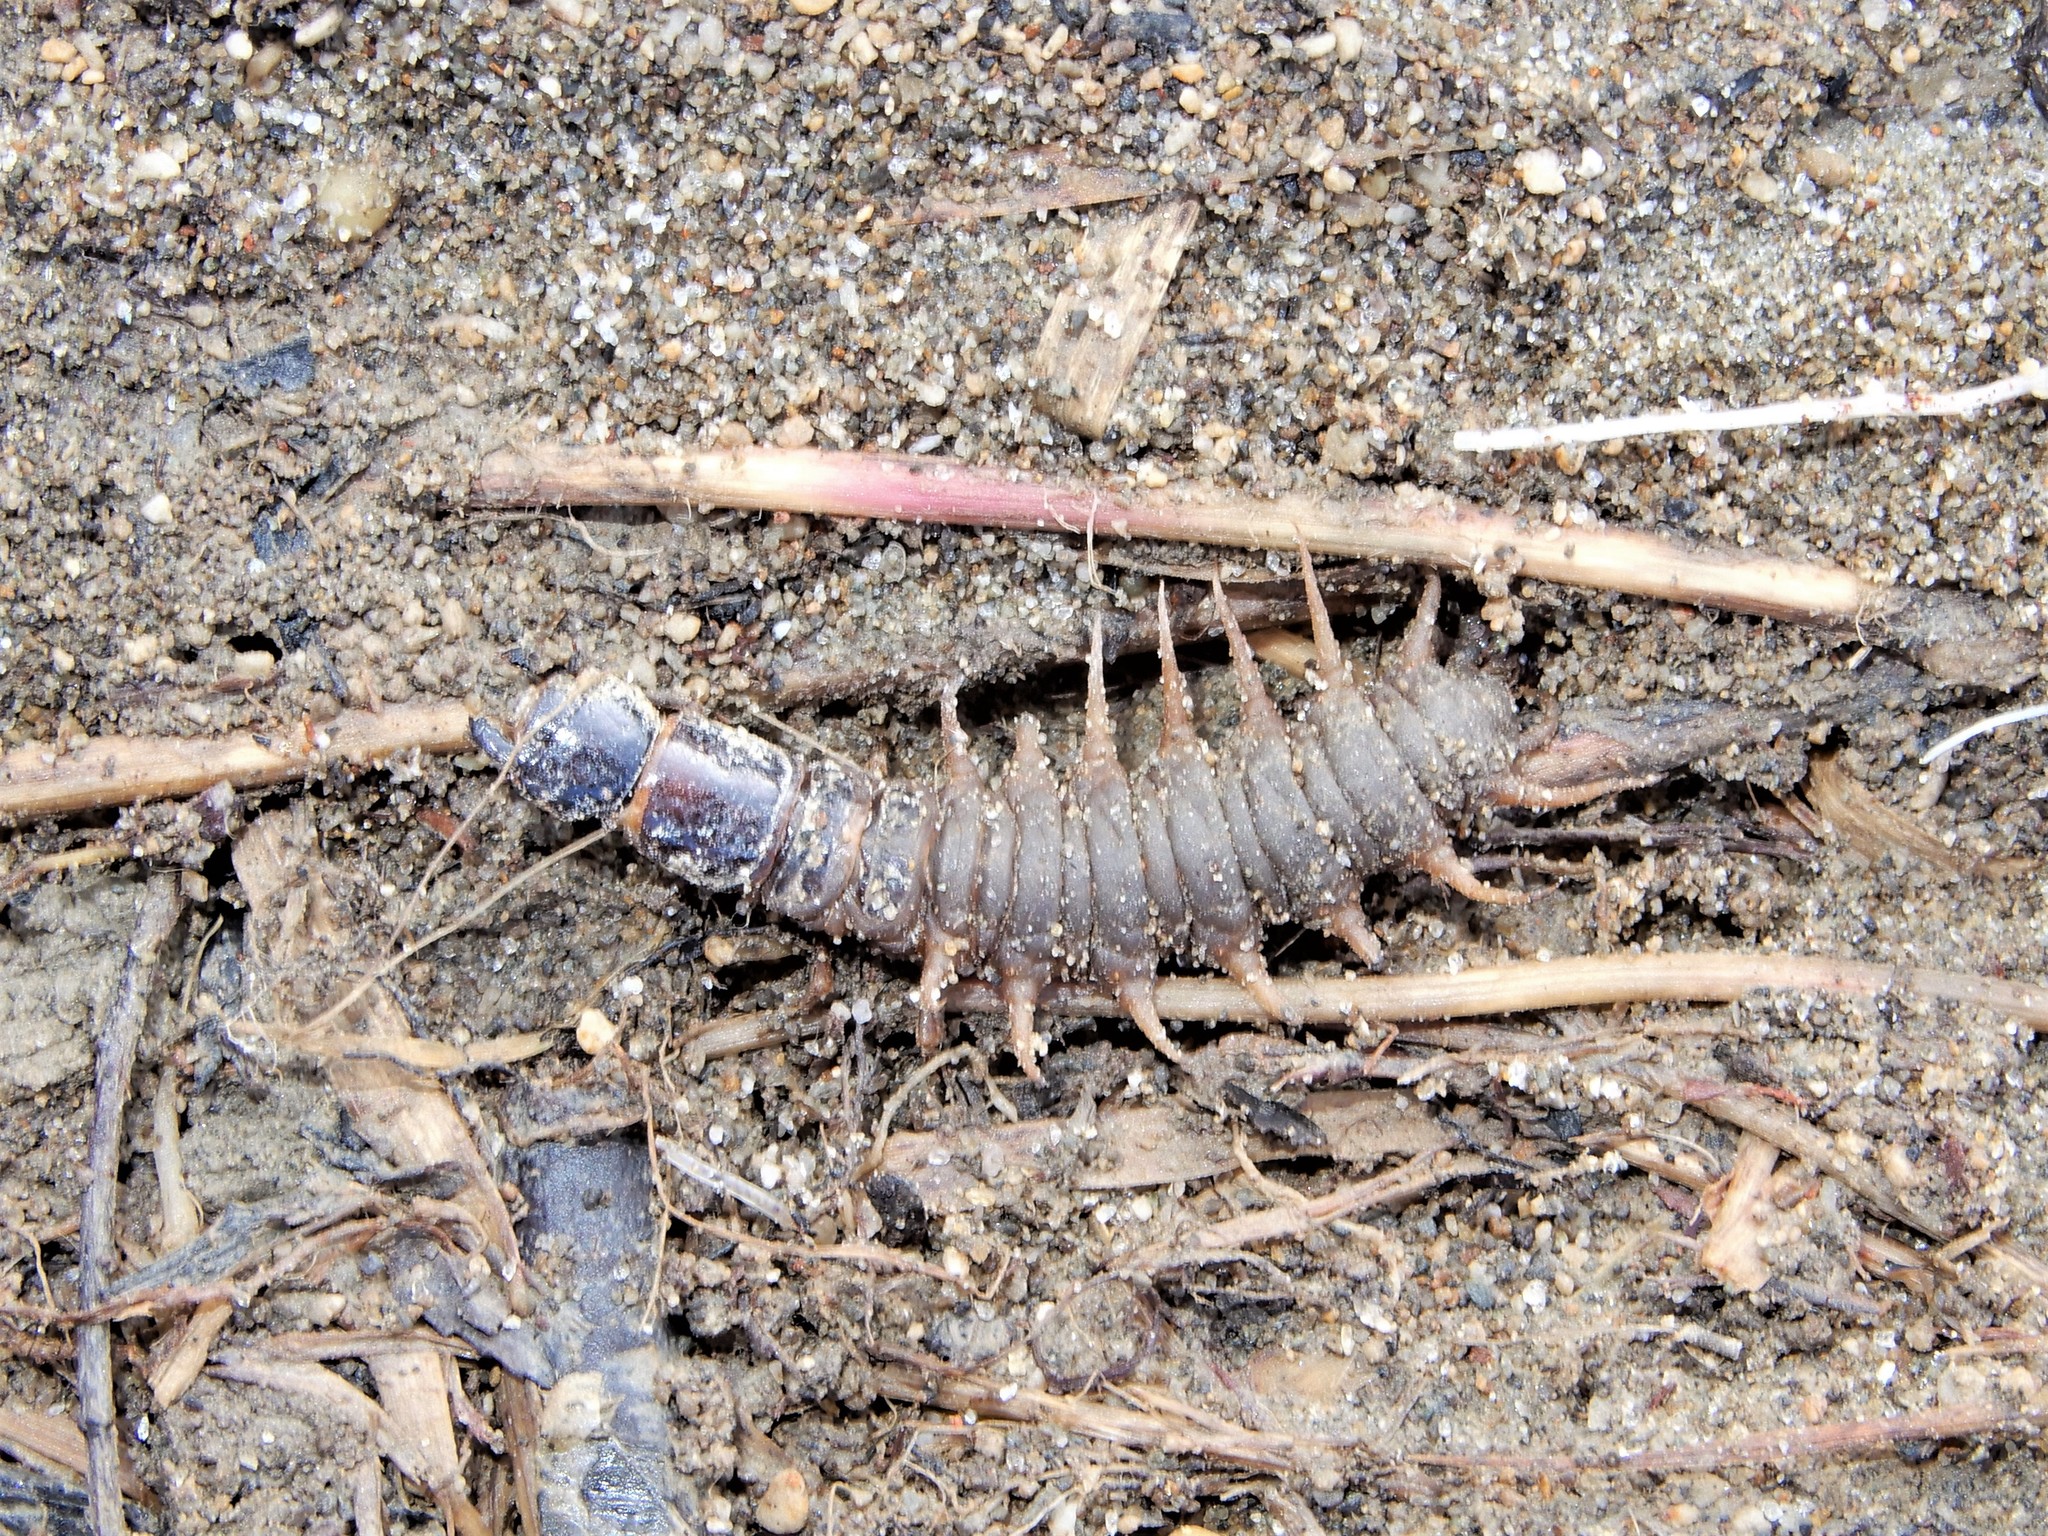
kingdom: Animalia
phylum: Arthropoda
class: Insecta
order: Megaloptera
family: Corydalidae
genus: Archichauliodes
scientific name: Archichauliodes diversus
